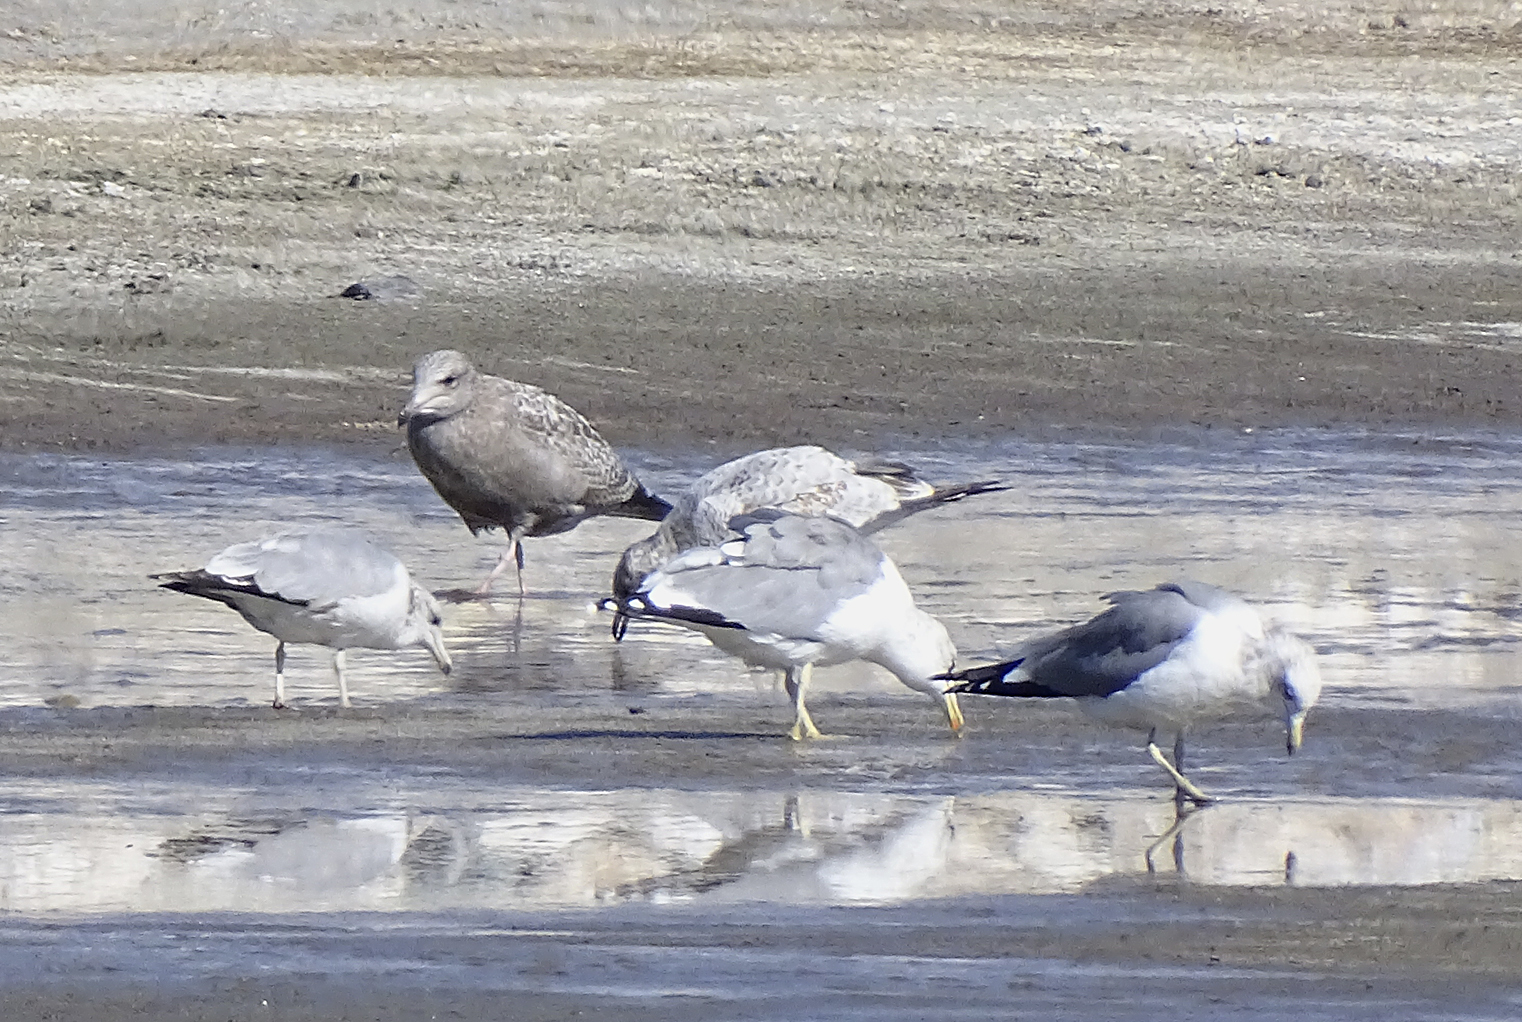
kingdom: Animalia
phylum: Chordata
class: Aves
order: Charadriiformes
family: Laridae
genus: Larus
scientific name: Larus argentatus
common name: Herring gull
